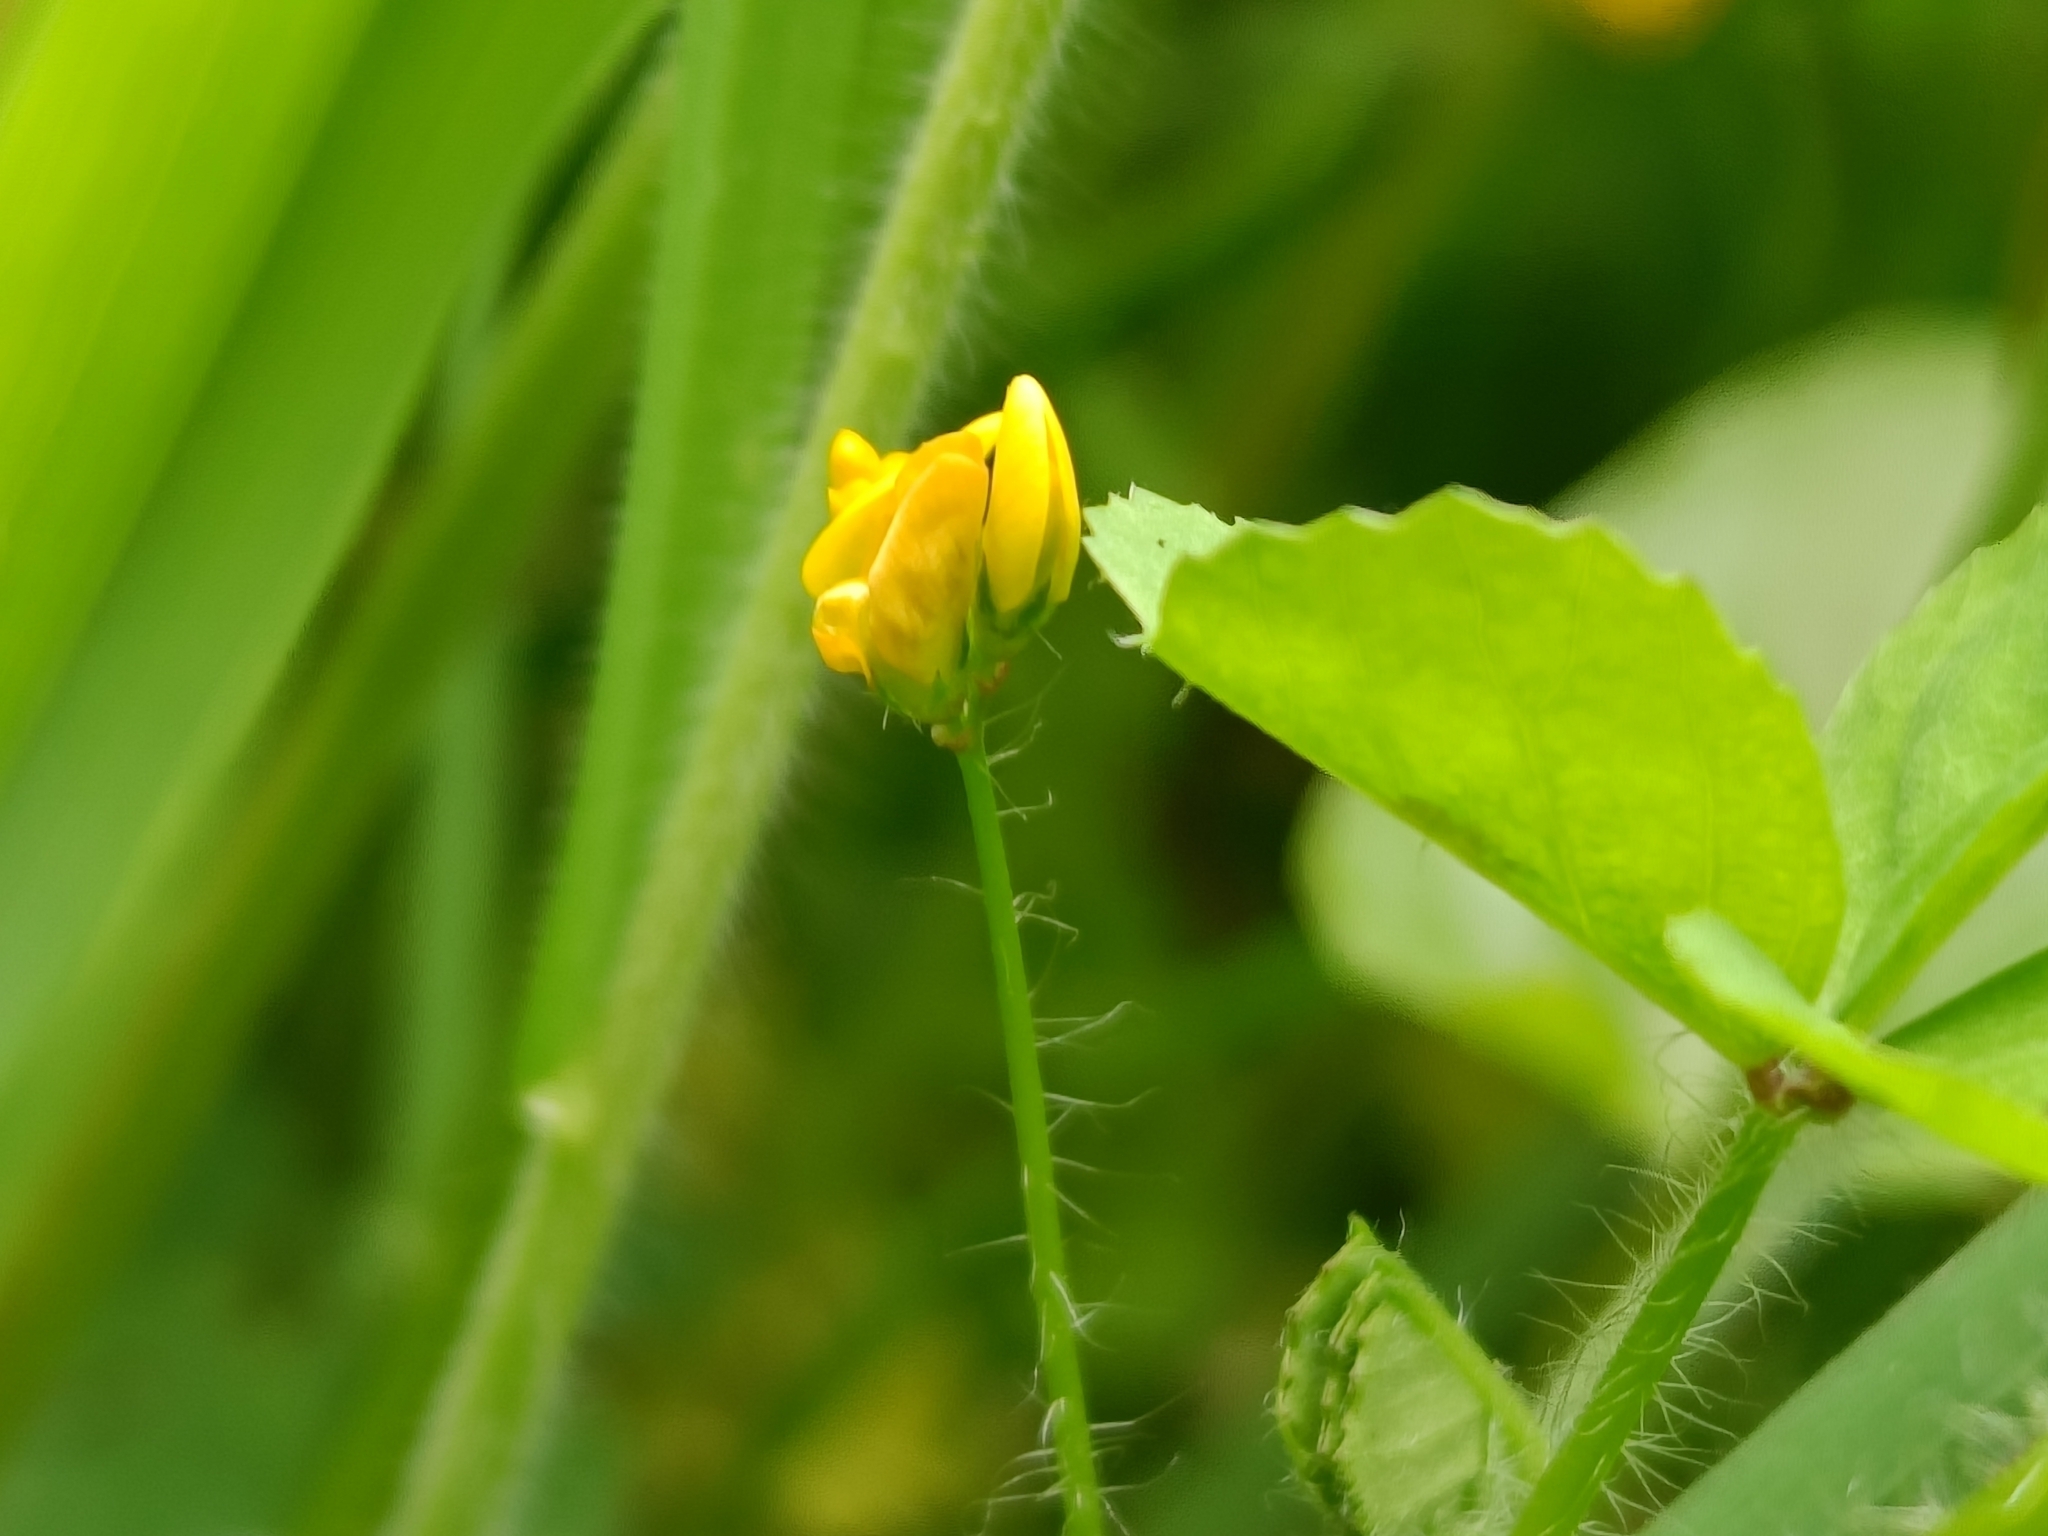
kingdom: Plantae
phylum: Tracheophyta
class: Magnoliopsida
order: Fabales
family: Fabaceae
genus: Medicago
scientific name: Medicago arabica
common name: Spotted medick
